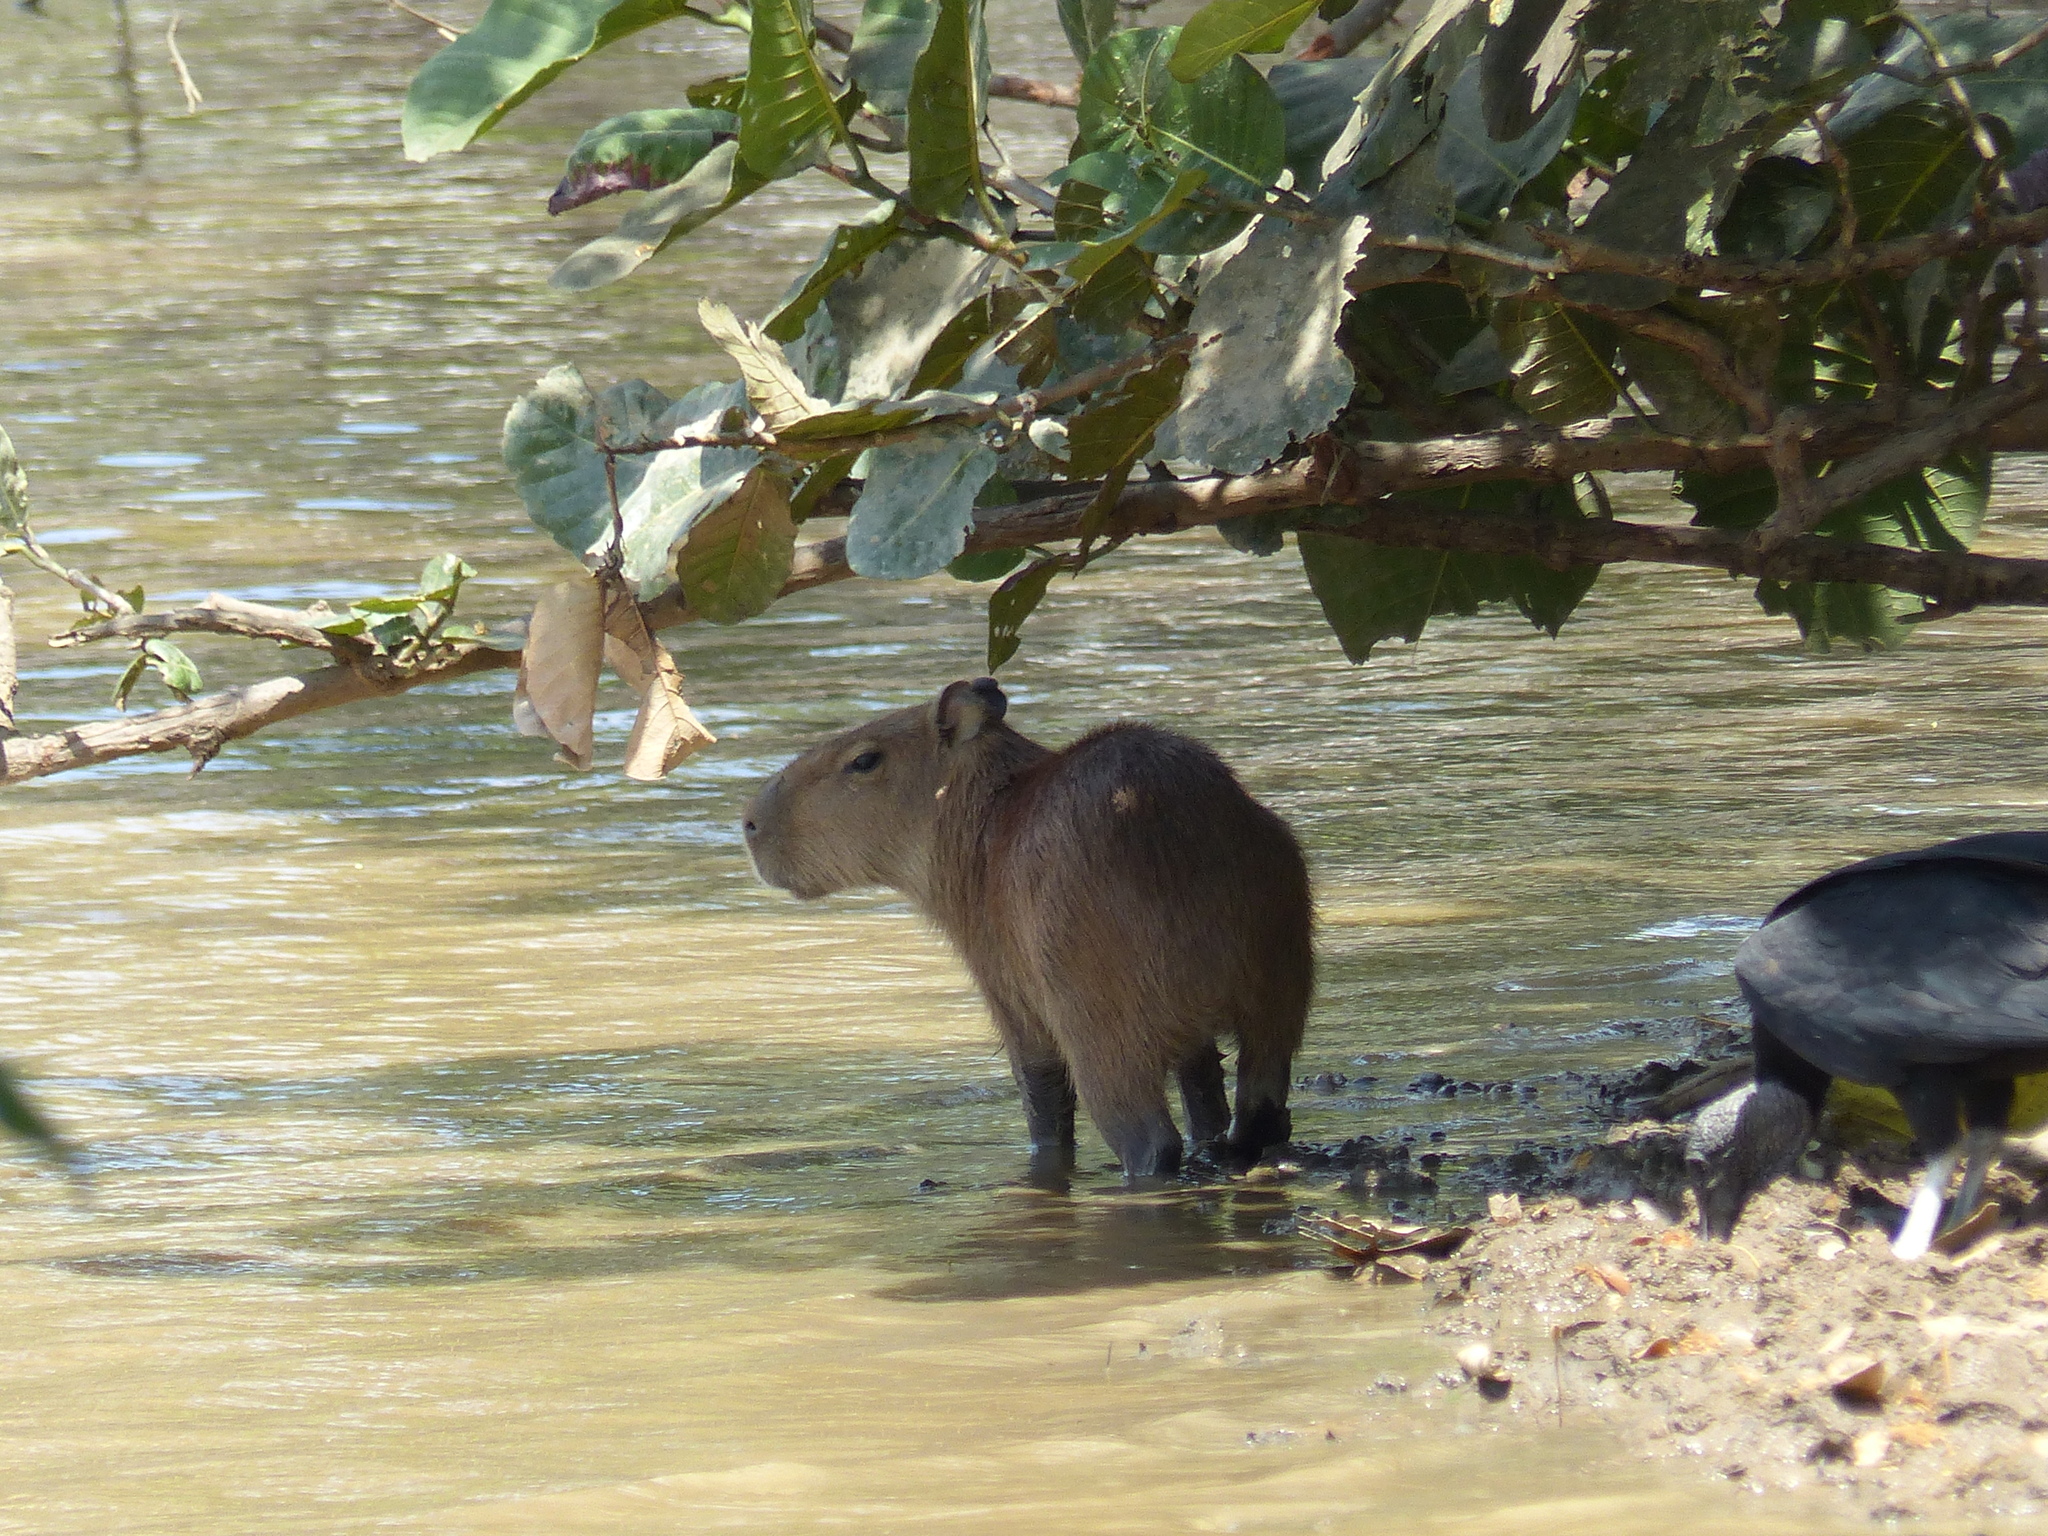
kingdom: Animalia
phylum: Chordata
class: Mammalia
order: Rodentia
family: Caviidae
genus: Hydrochoerus
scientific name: Hydrochoerus hydrochaeris
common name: Capybara
